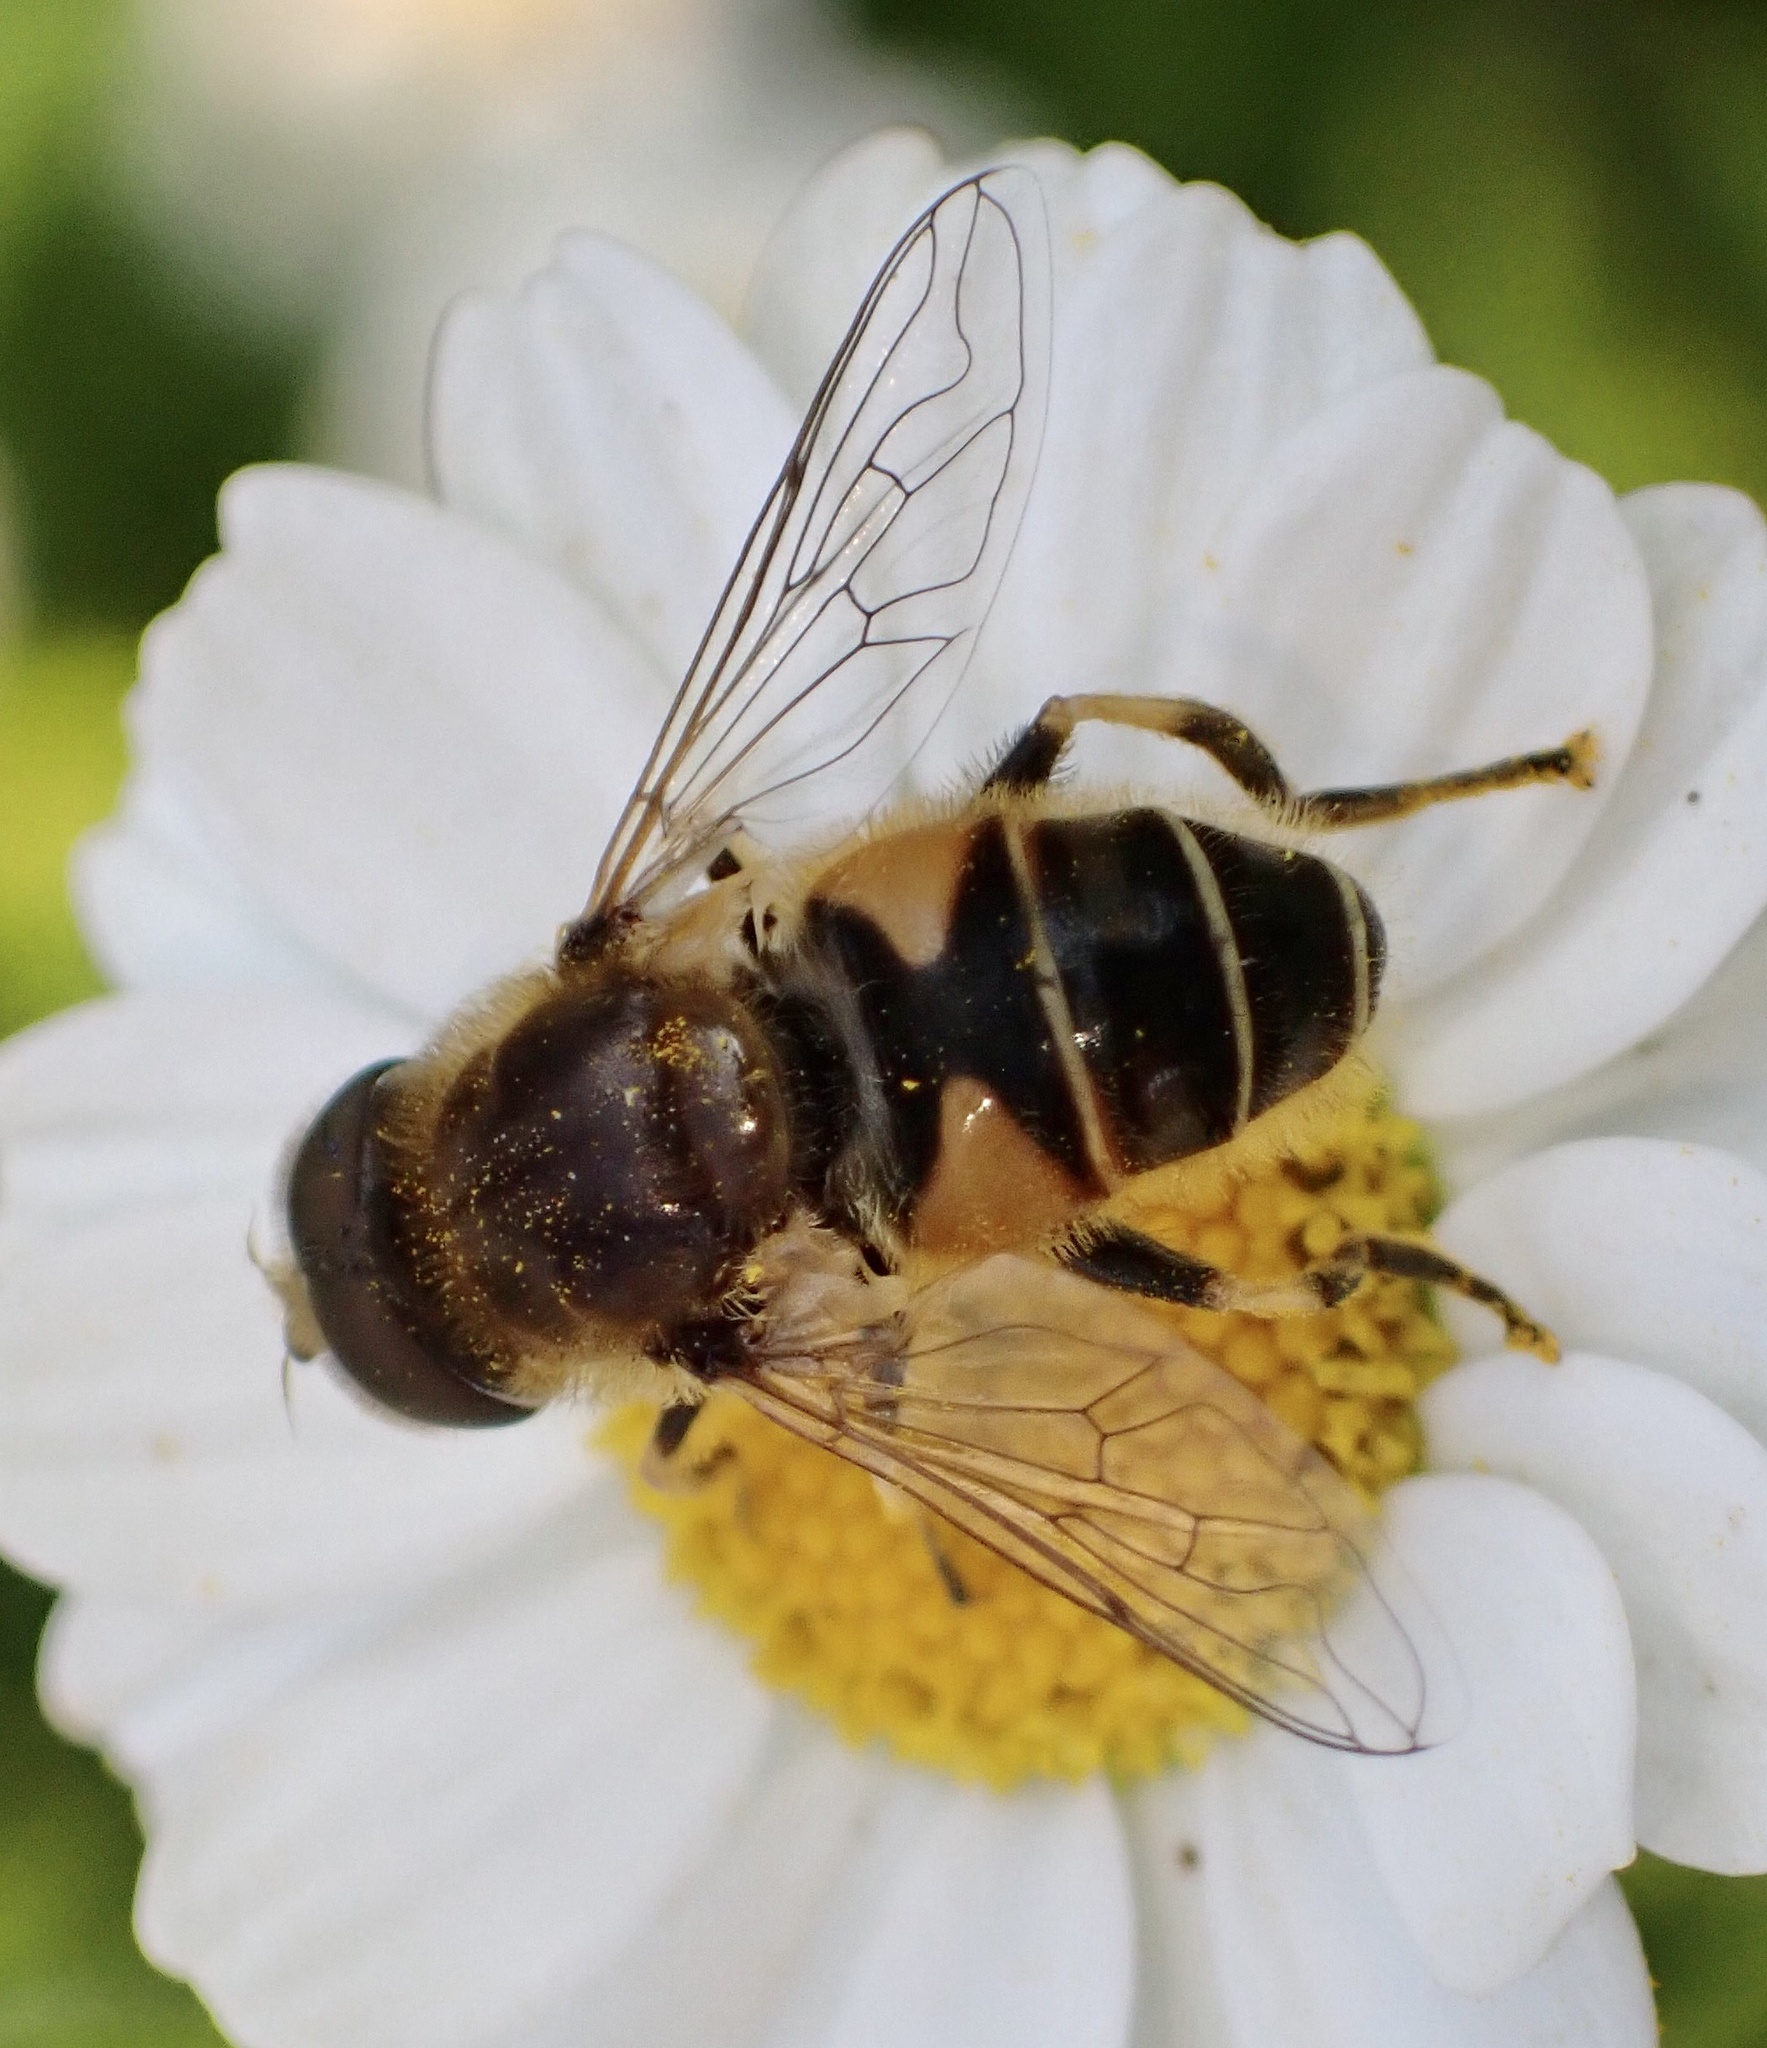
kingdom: Animalia
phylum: Arthropoda
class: Insecta
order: Diptera
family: Syrphidae
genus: Eristalis
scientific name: Eristalis nemorum
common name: Orange-spined drone fly
